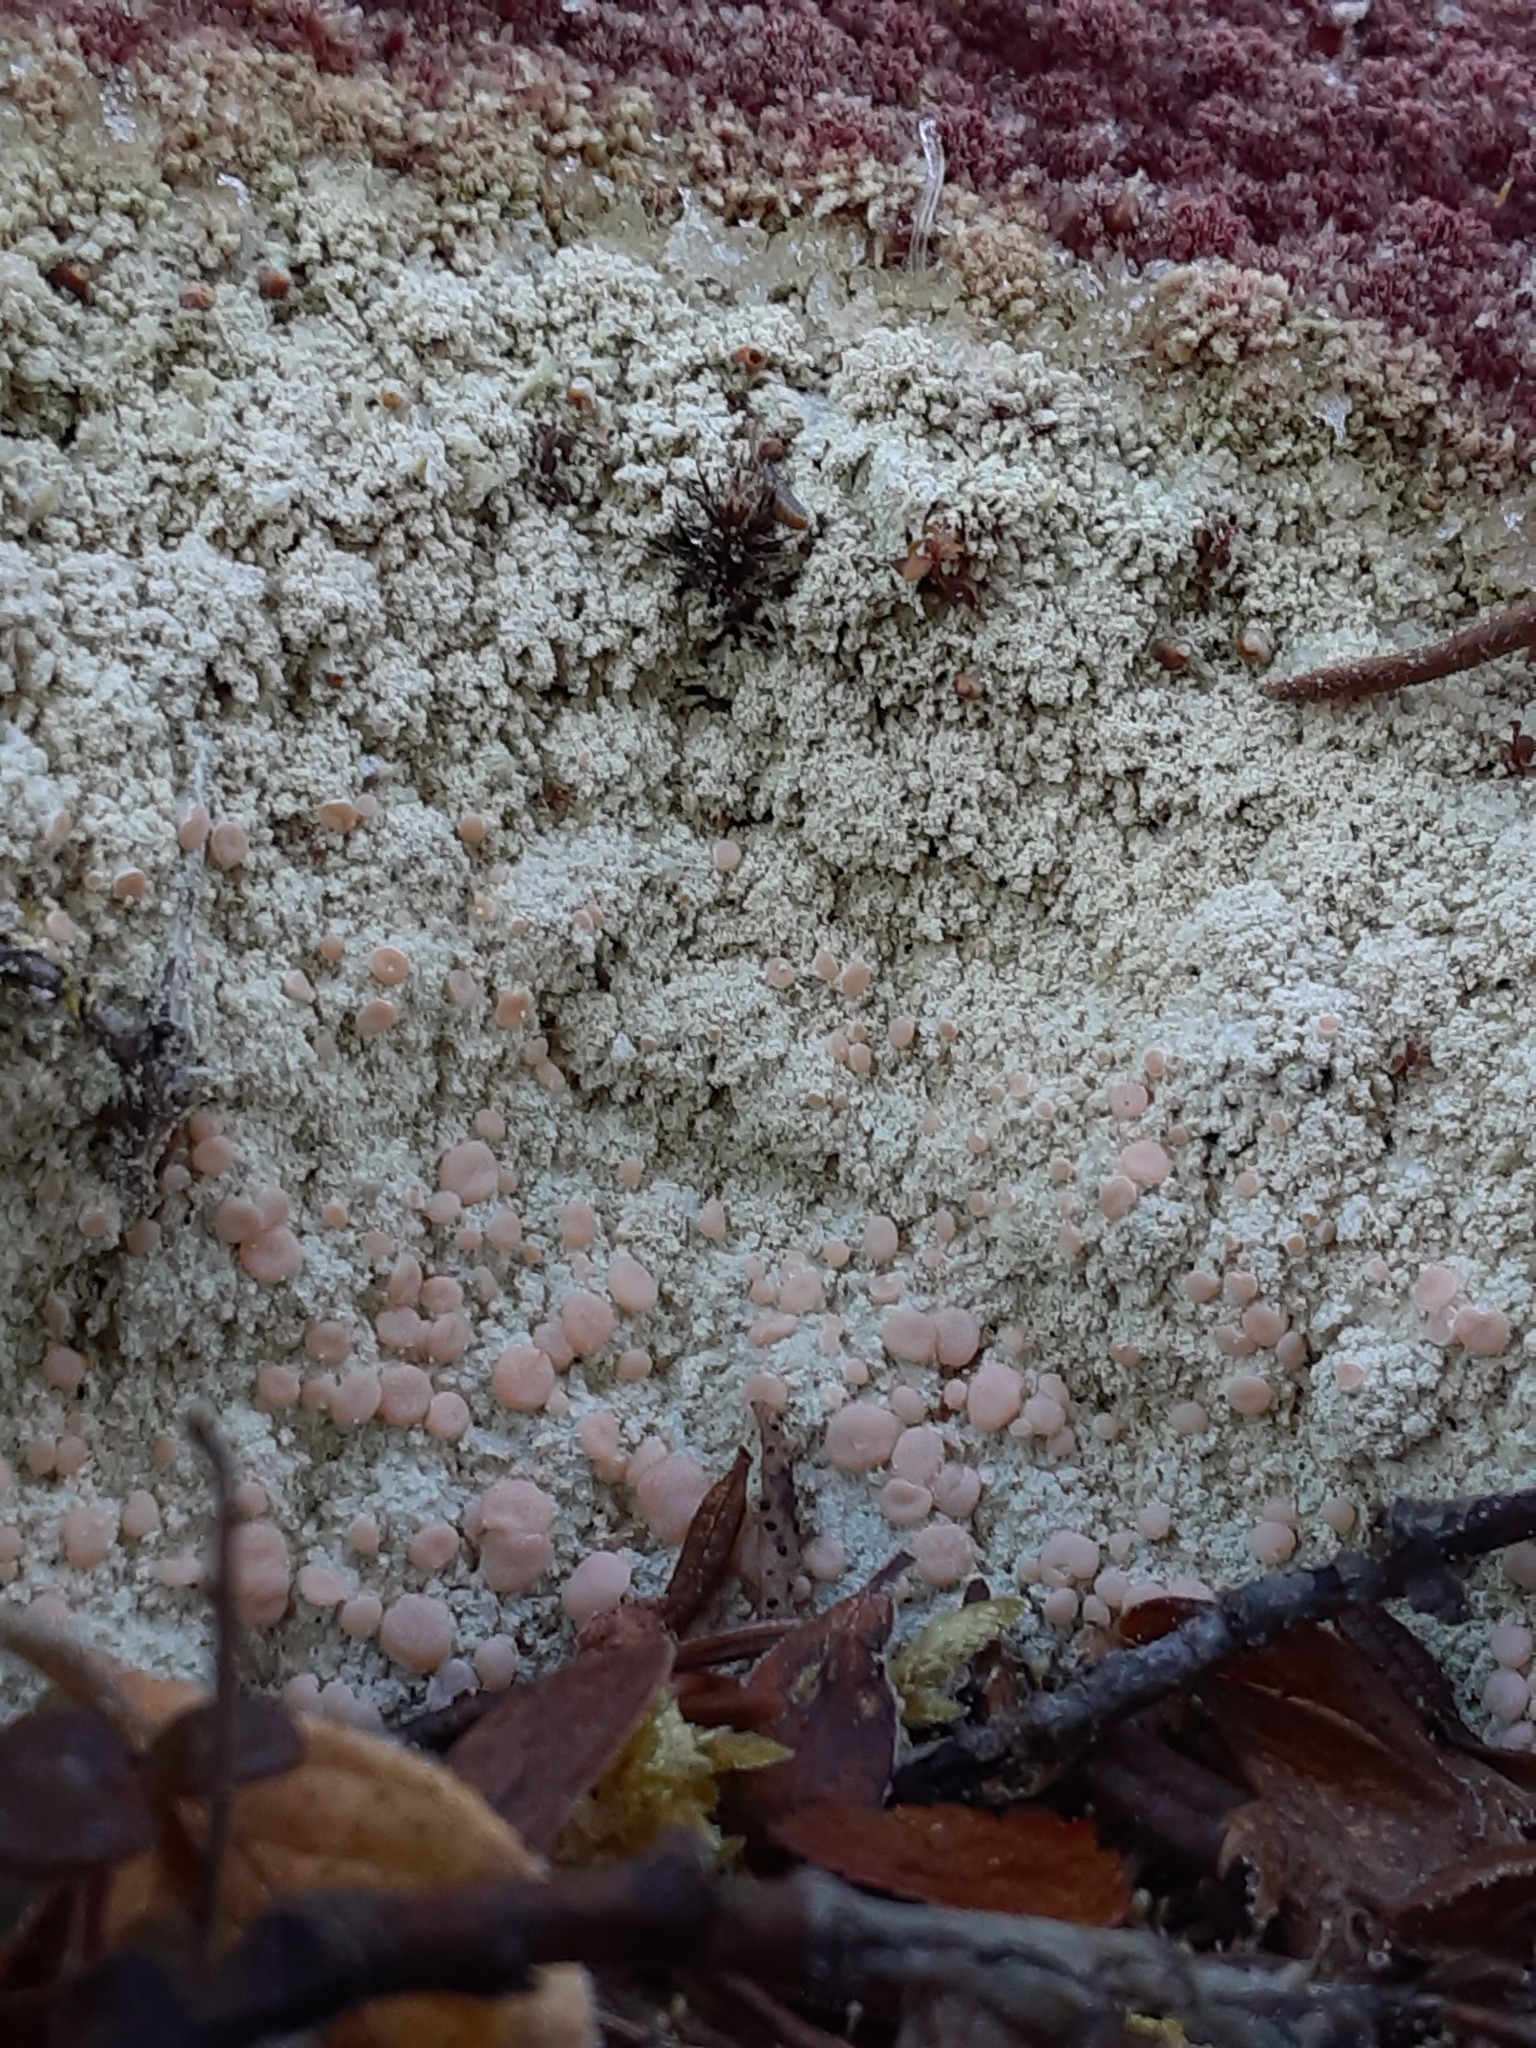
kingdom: Fungi
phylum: Ascomycota
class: Lecanoromycetes
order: Pertusariales
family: Icmadophilaceae
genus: Icmadophila
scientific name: Icmadophila ericetorum
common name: Candy lichen
